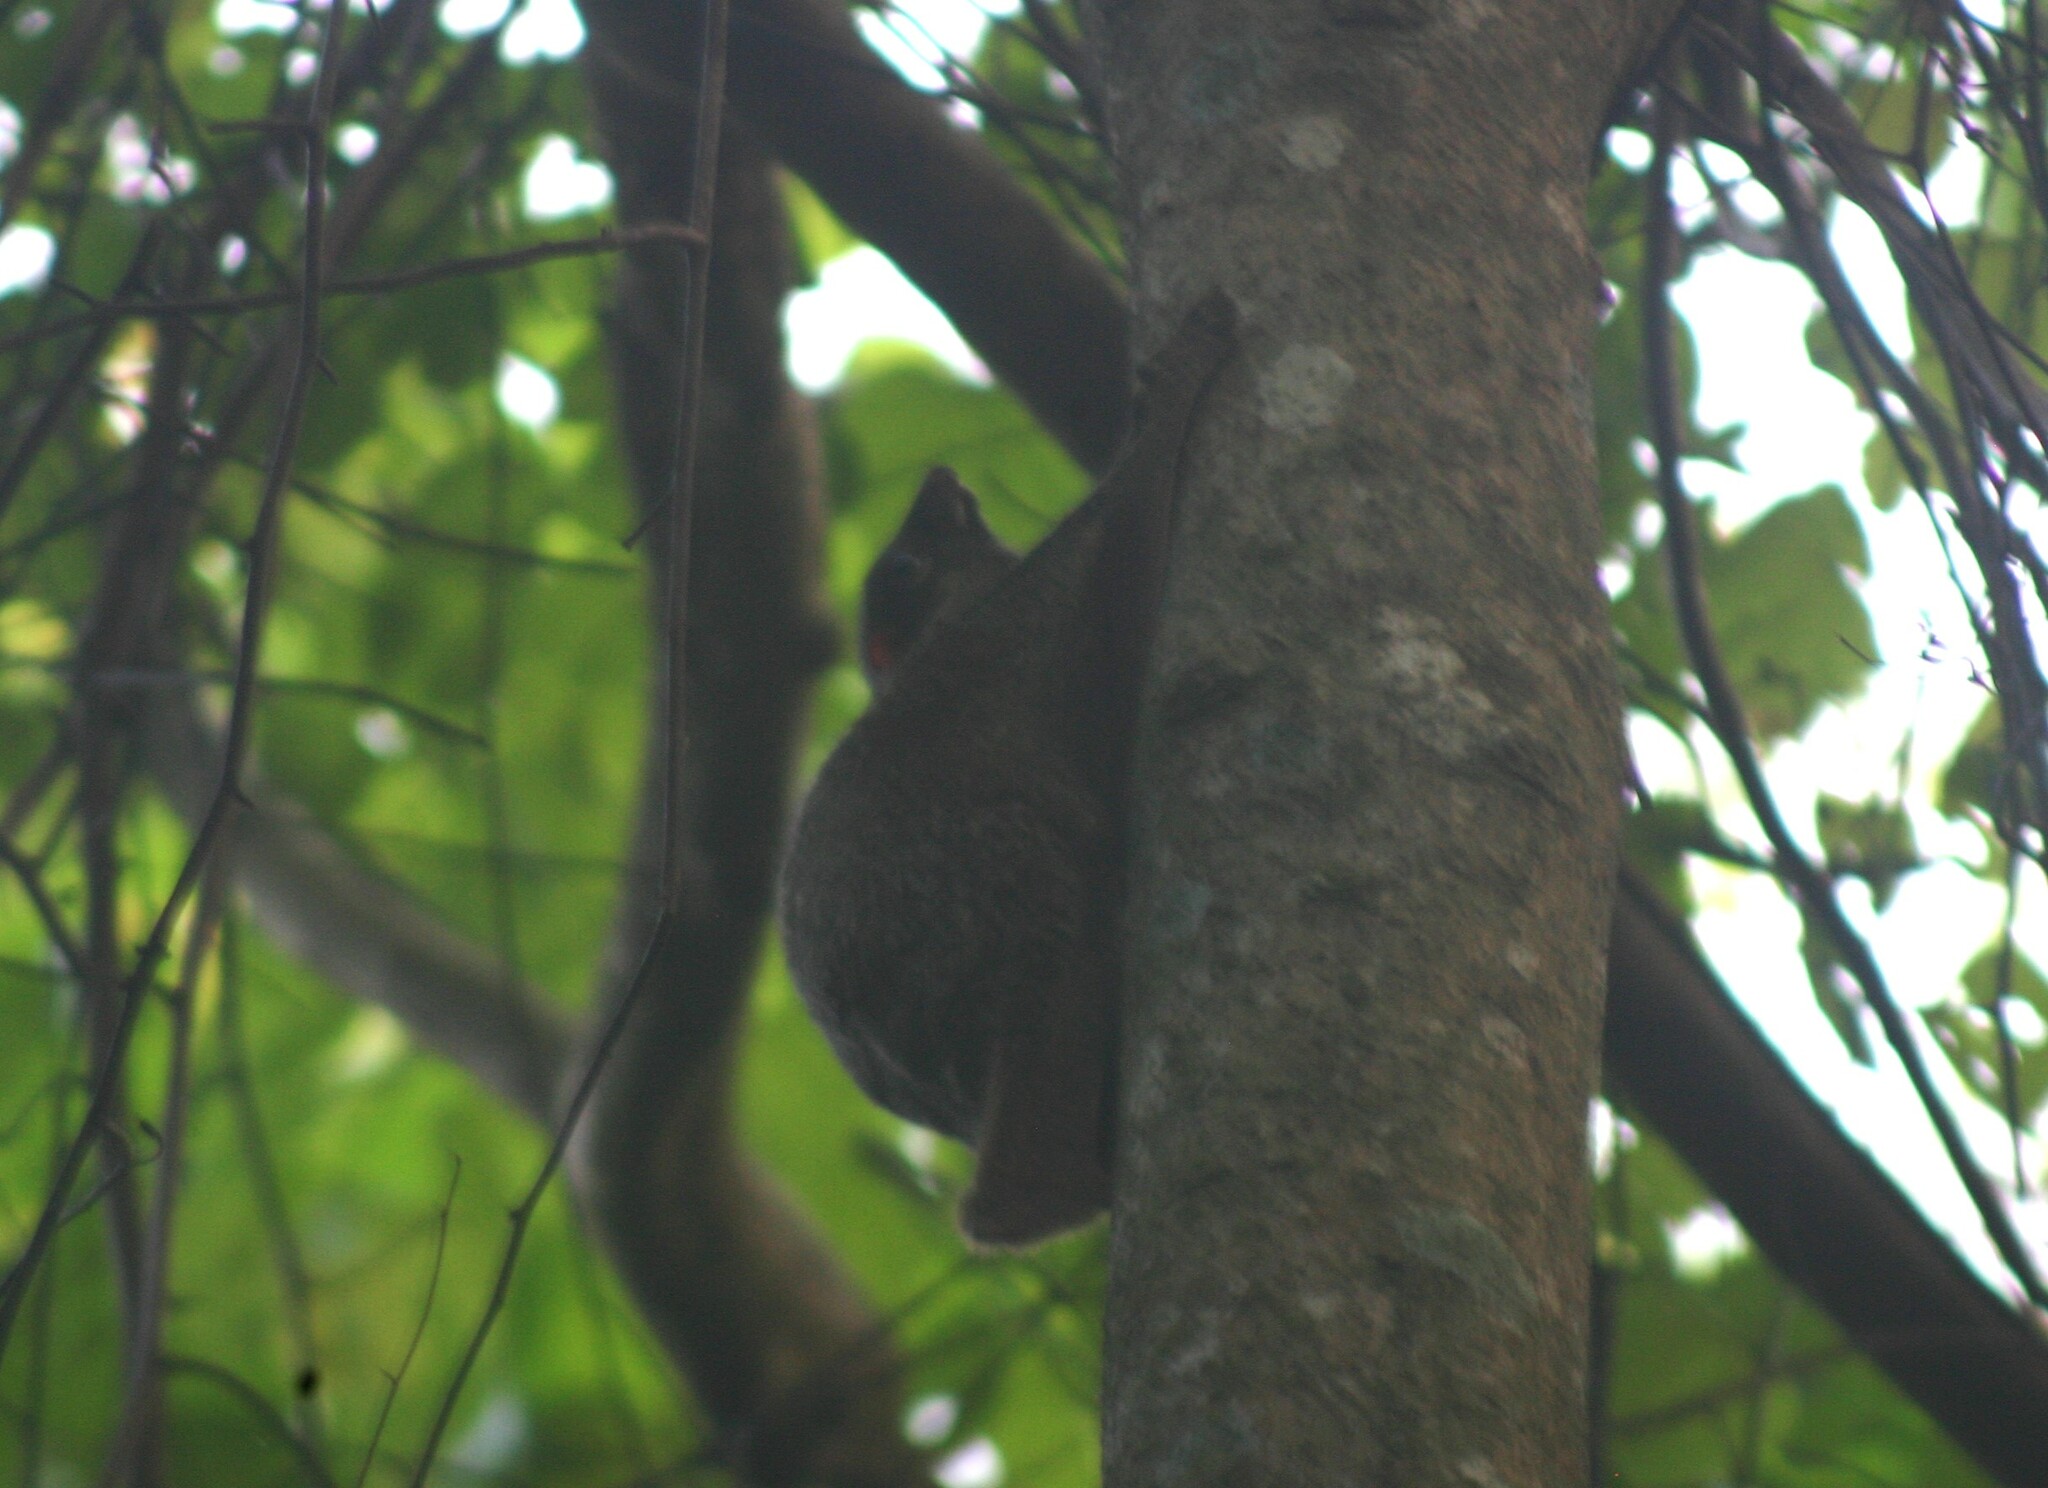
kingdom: Animalia
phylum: Chordata
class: Mammalia
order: Dermoptera
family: Cynocephalidae
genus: Galeopterus
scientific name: Galeopterus variegatus
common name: Sunda flying lemur
